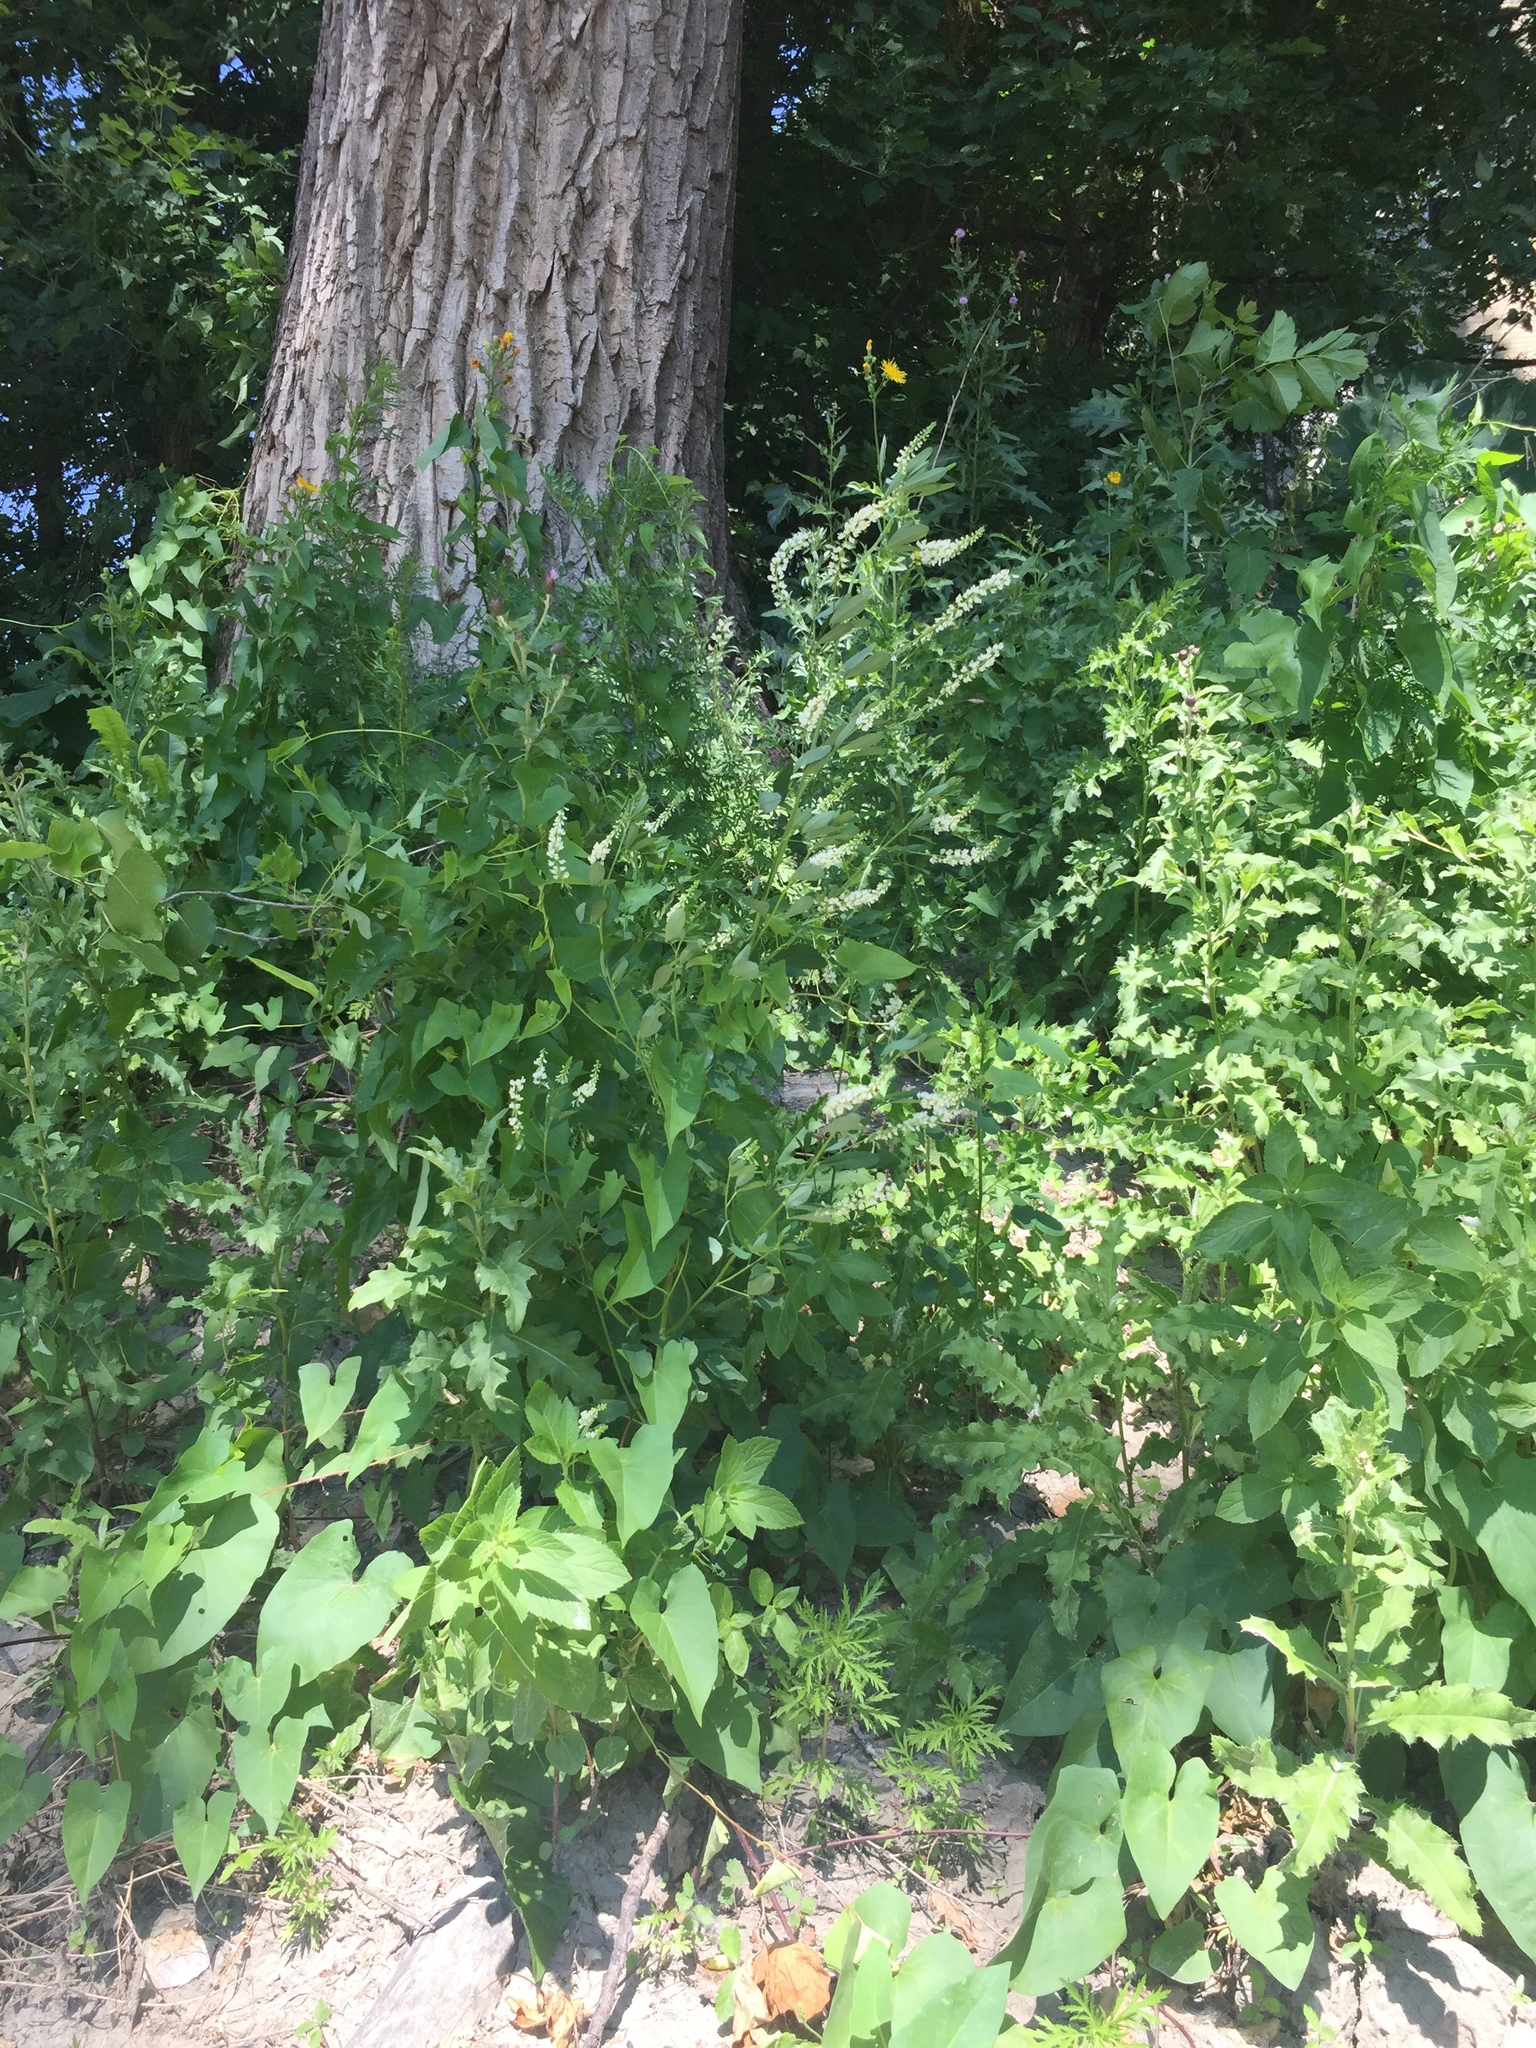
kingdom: Plantae
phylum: Tracheophyta
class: Magnoliopsida
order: Fabales
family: Fabaceae
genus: Melilotus
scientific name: Melilotus albus
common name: White melilot
